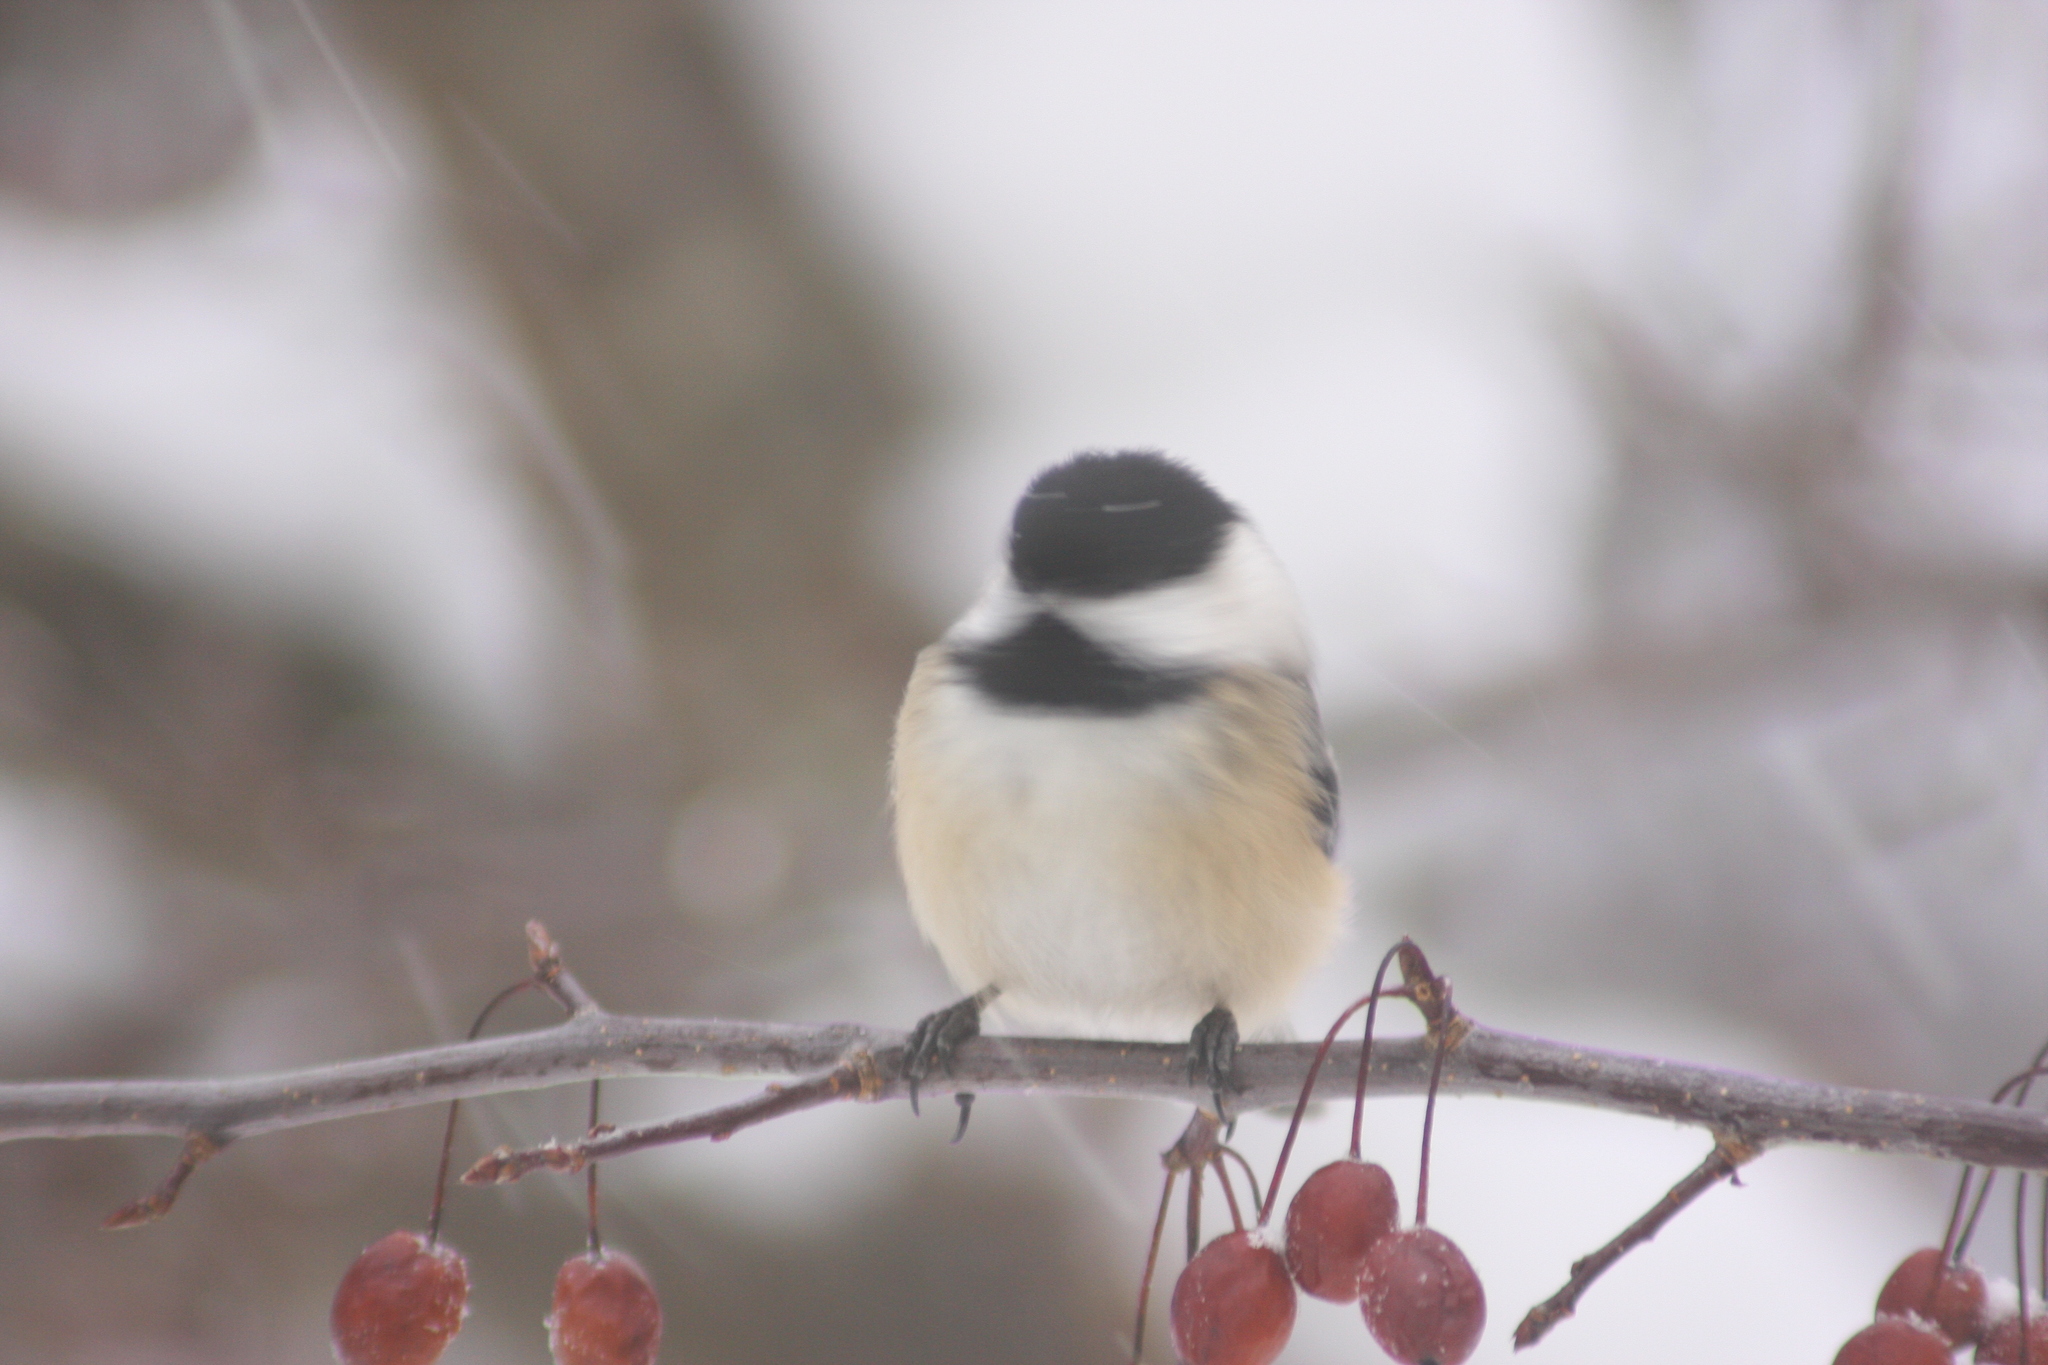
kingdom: Animalia
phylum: Chordata
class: Aves
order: Passeriformes
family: Paridae
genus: Poecile
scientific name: Poecile atricapillus
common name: Black-capped chickadee
